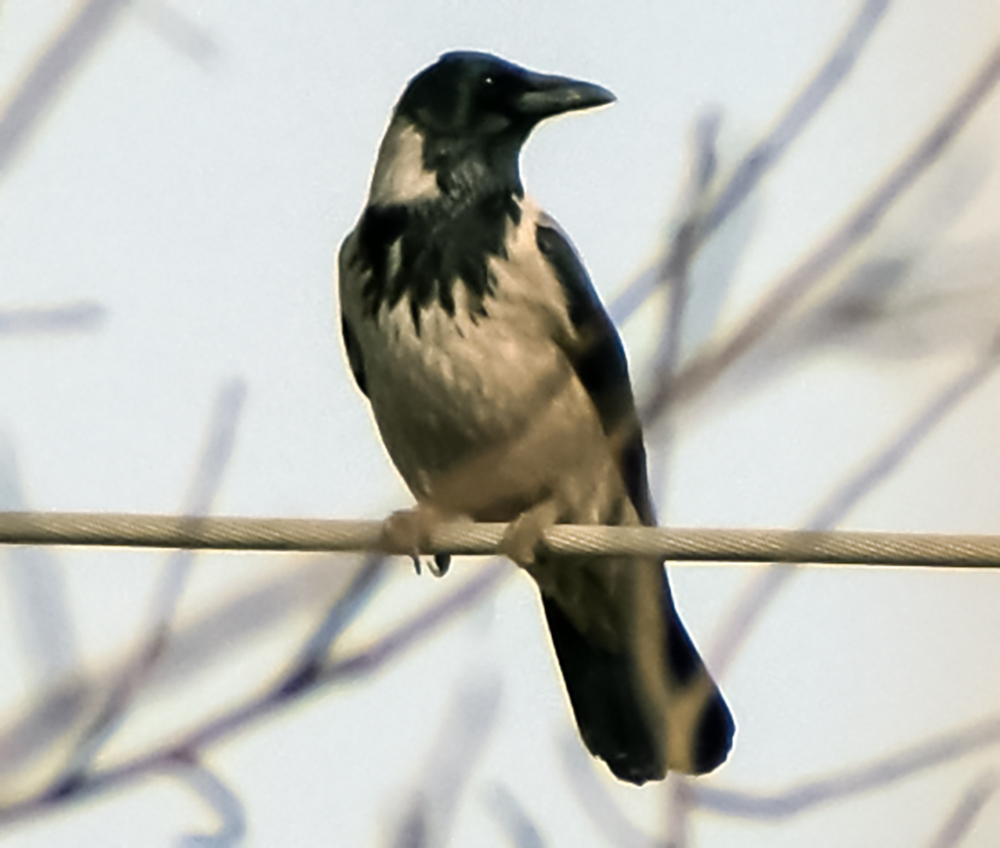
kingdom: Animalia
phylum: Chordata
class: Aves
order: Passeriformes
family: Corvidae
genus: Corvus
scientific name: Corvus cornix
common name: Hooded crow
